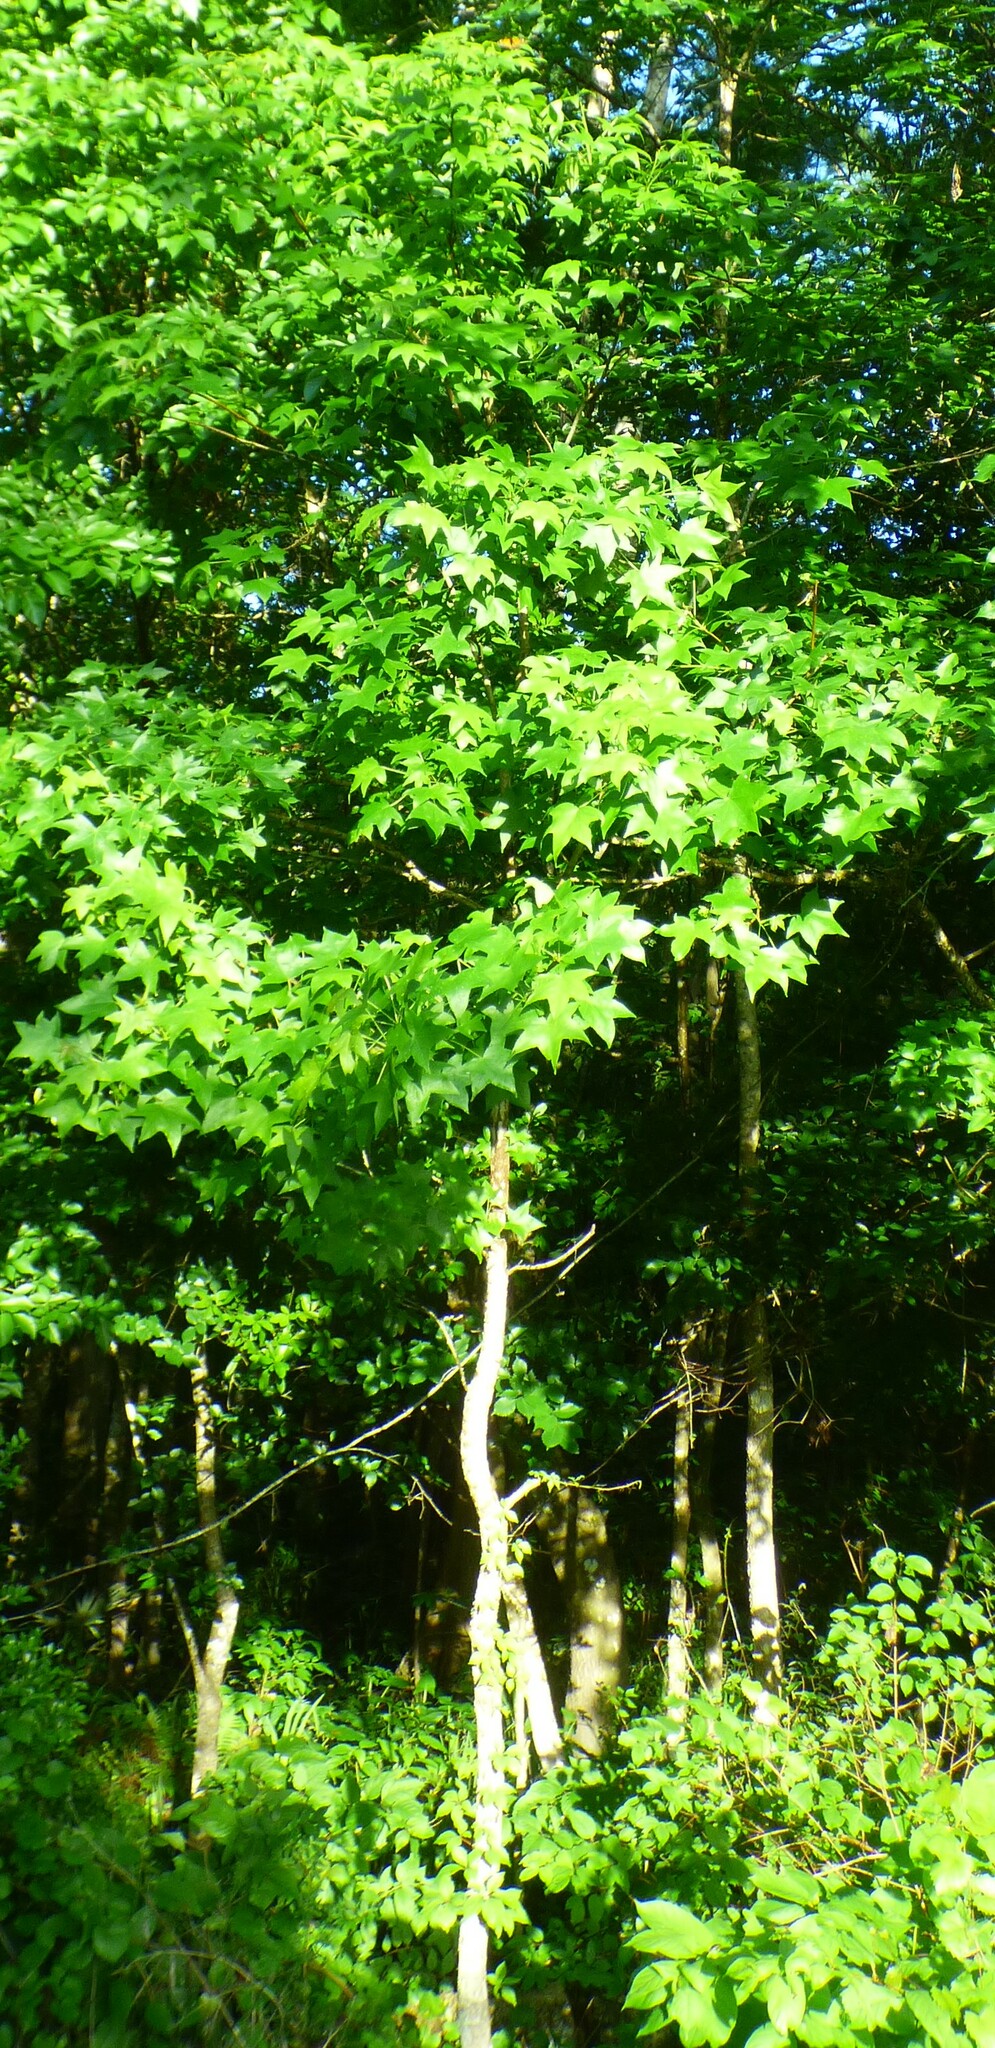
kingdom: Animalia
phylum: Arthropoda
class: Insecta
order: Lepidoptera
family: Nymphalidae
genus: Danaus
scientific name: Danaus plexippus
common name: Monarch
